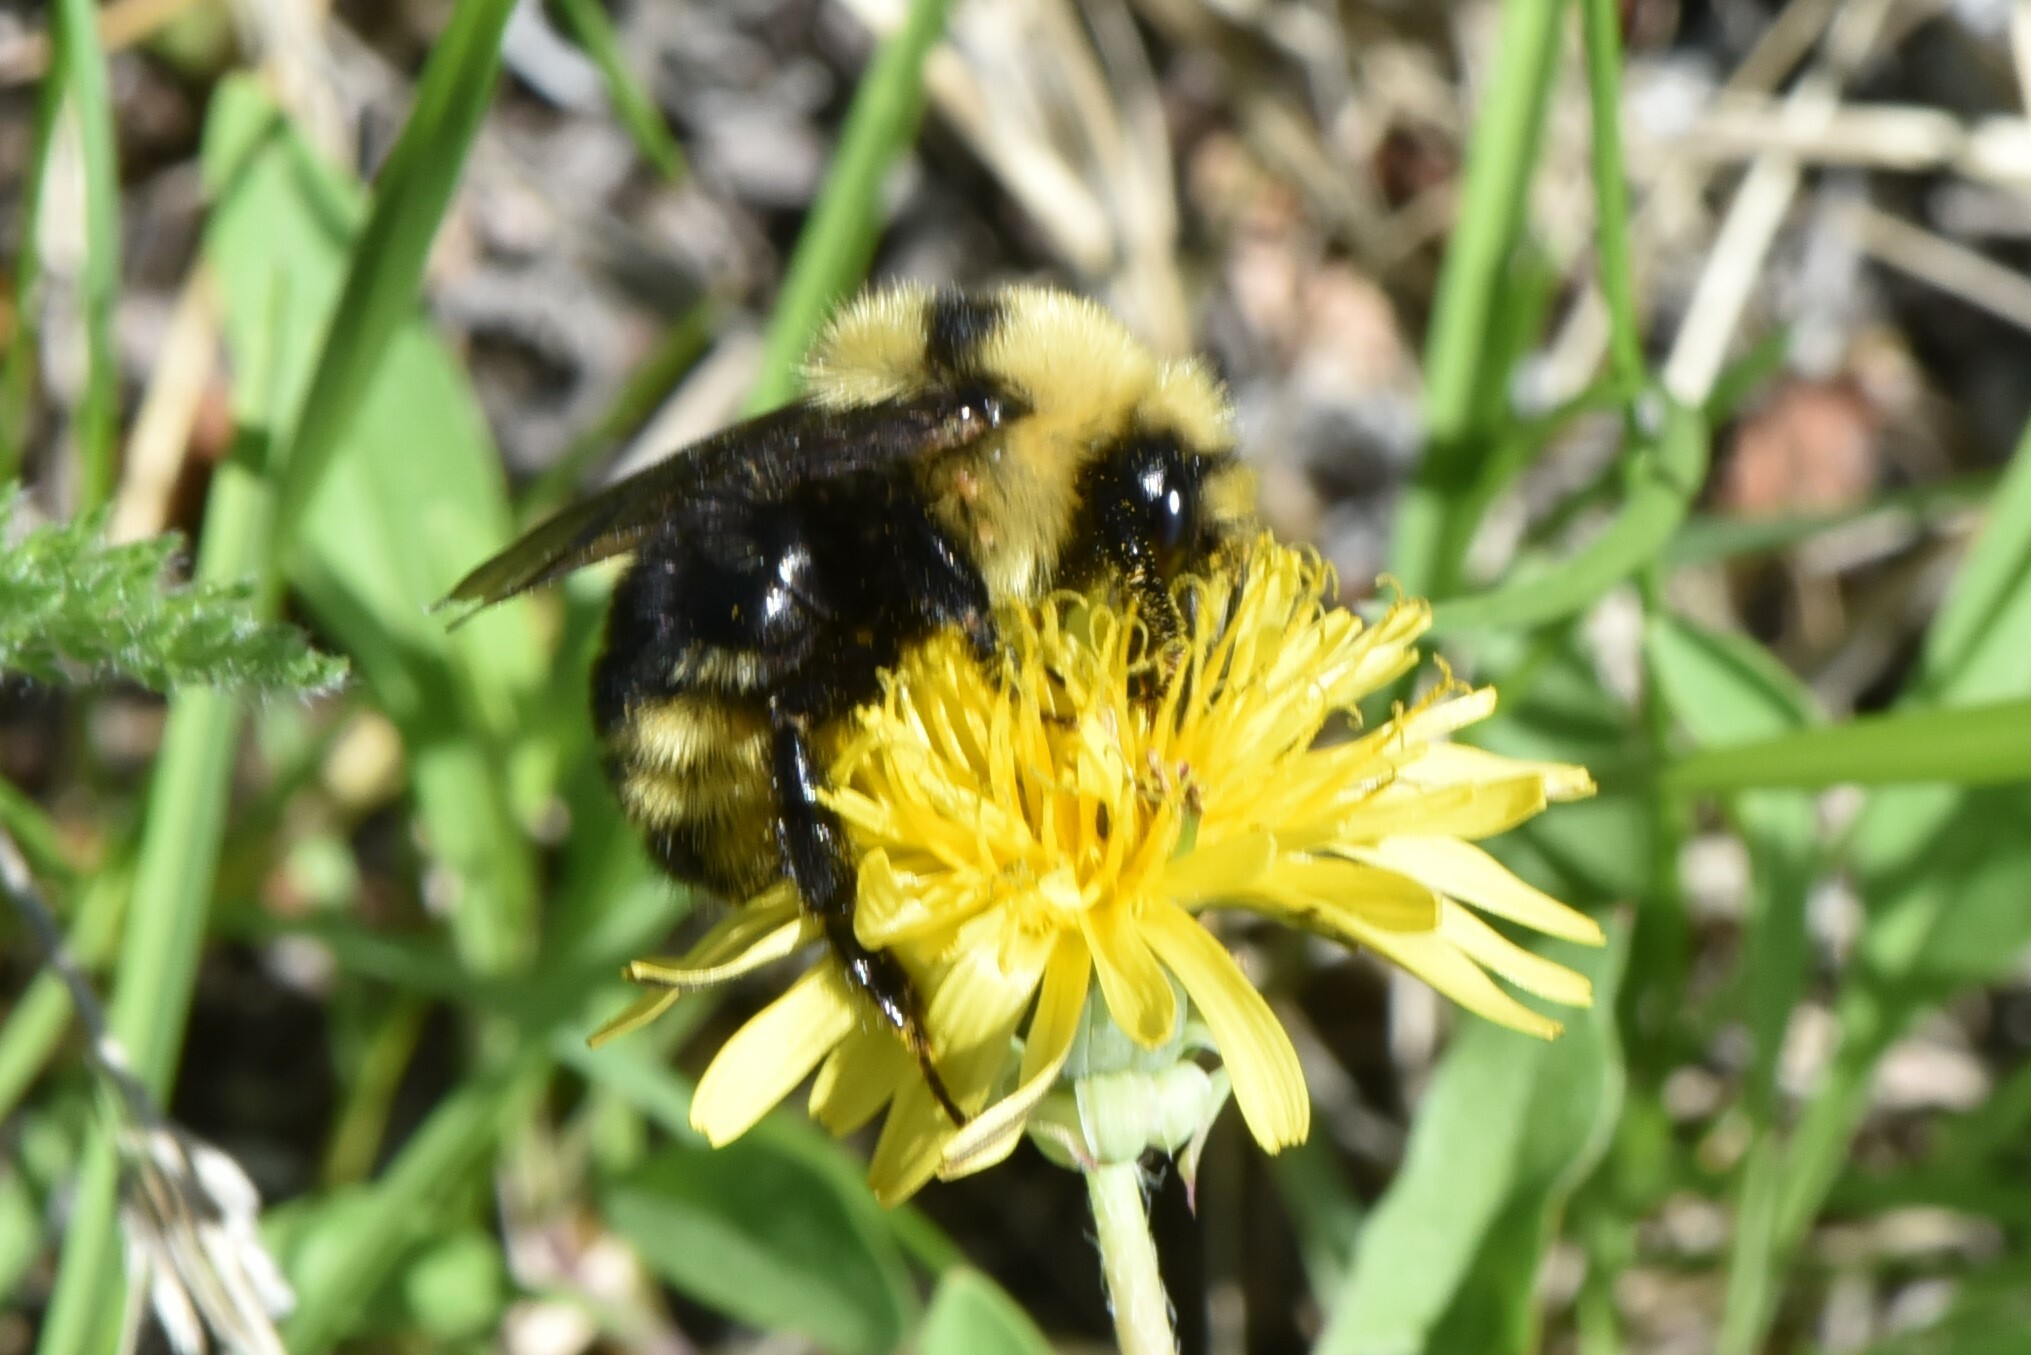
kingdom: Animalia
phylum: Arthropoda
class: Insecta
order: Hymenoptera
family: Apidae
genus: Bombus
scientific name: Bombus insularis
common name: Indiscriminate cuckoo bumble bee
